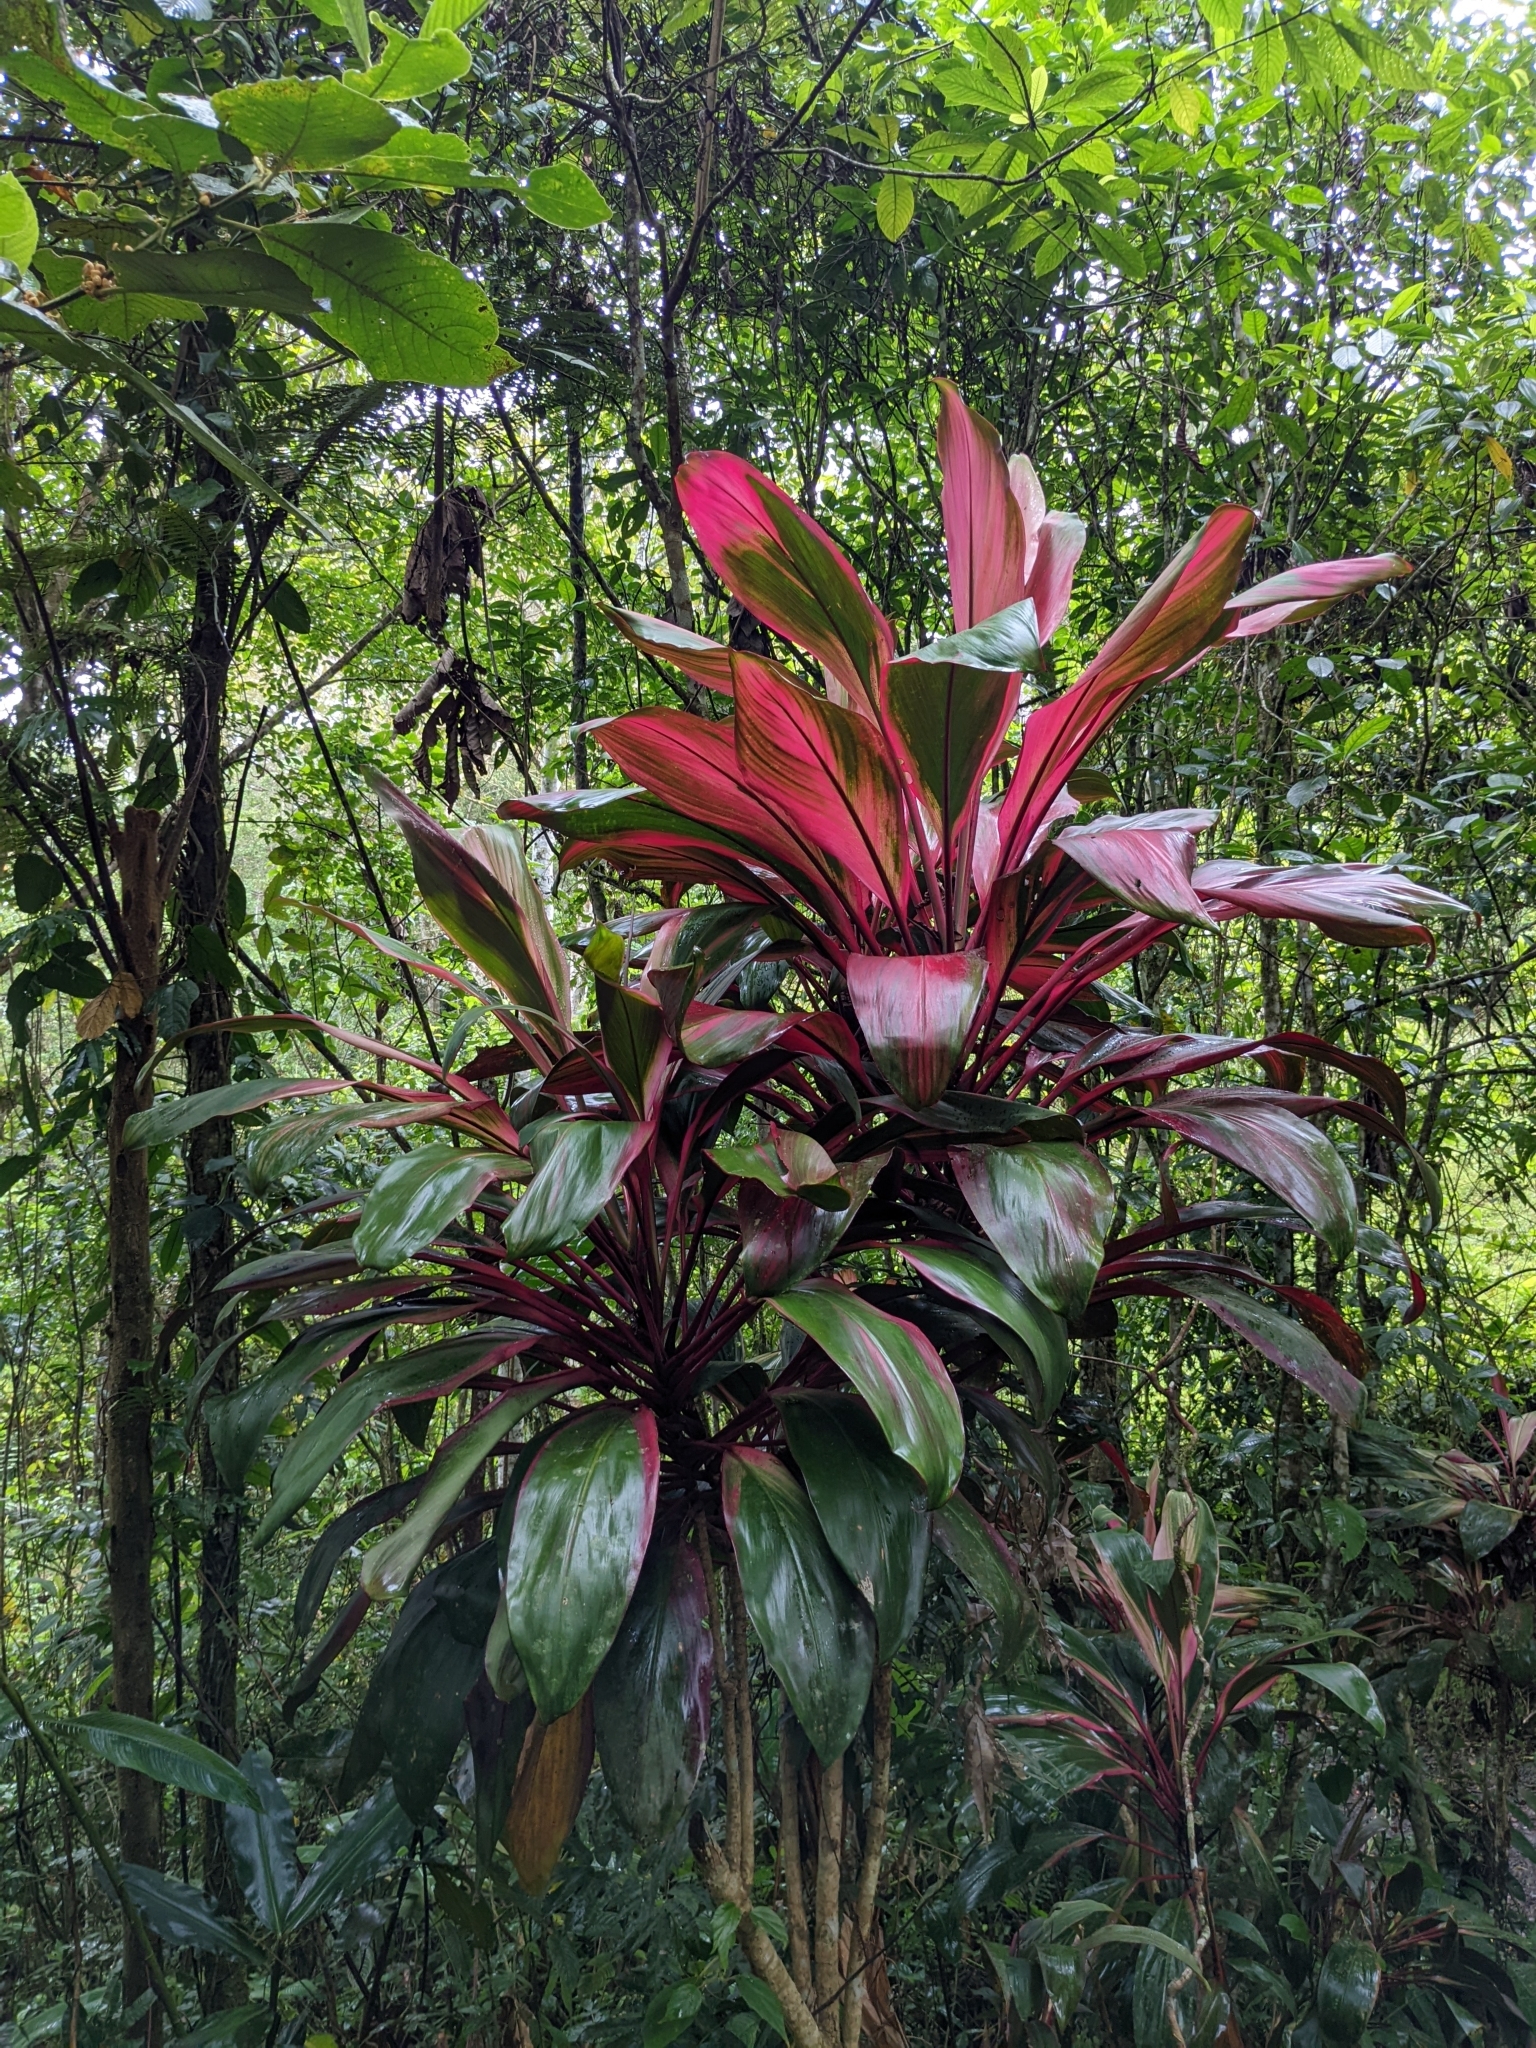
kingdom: Plantae
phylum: Tracheophyta
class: Liliopsida
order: Asparagales
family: Asparagaceae
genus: Cordyline
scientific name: Cordyline fruticosa
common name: Good-luck-plant
